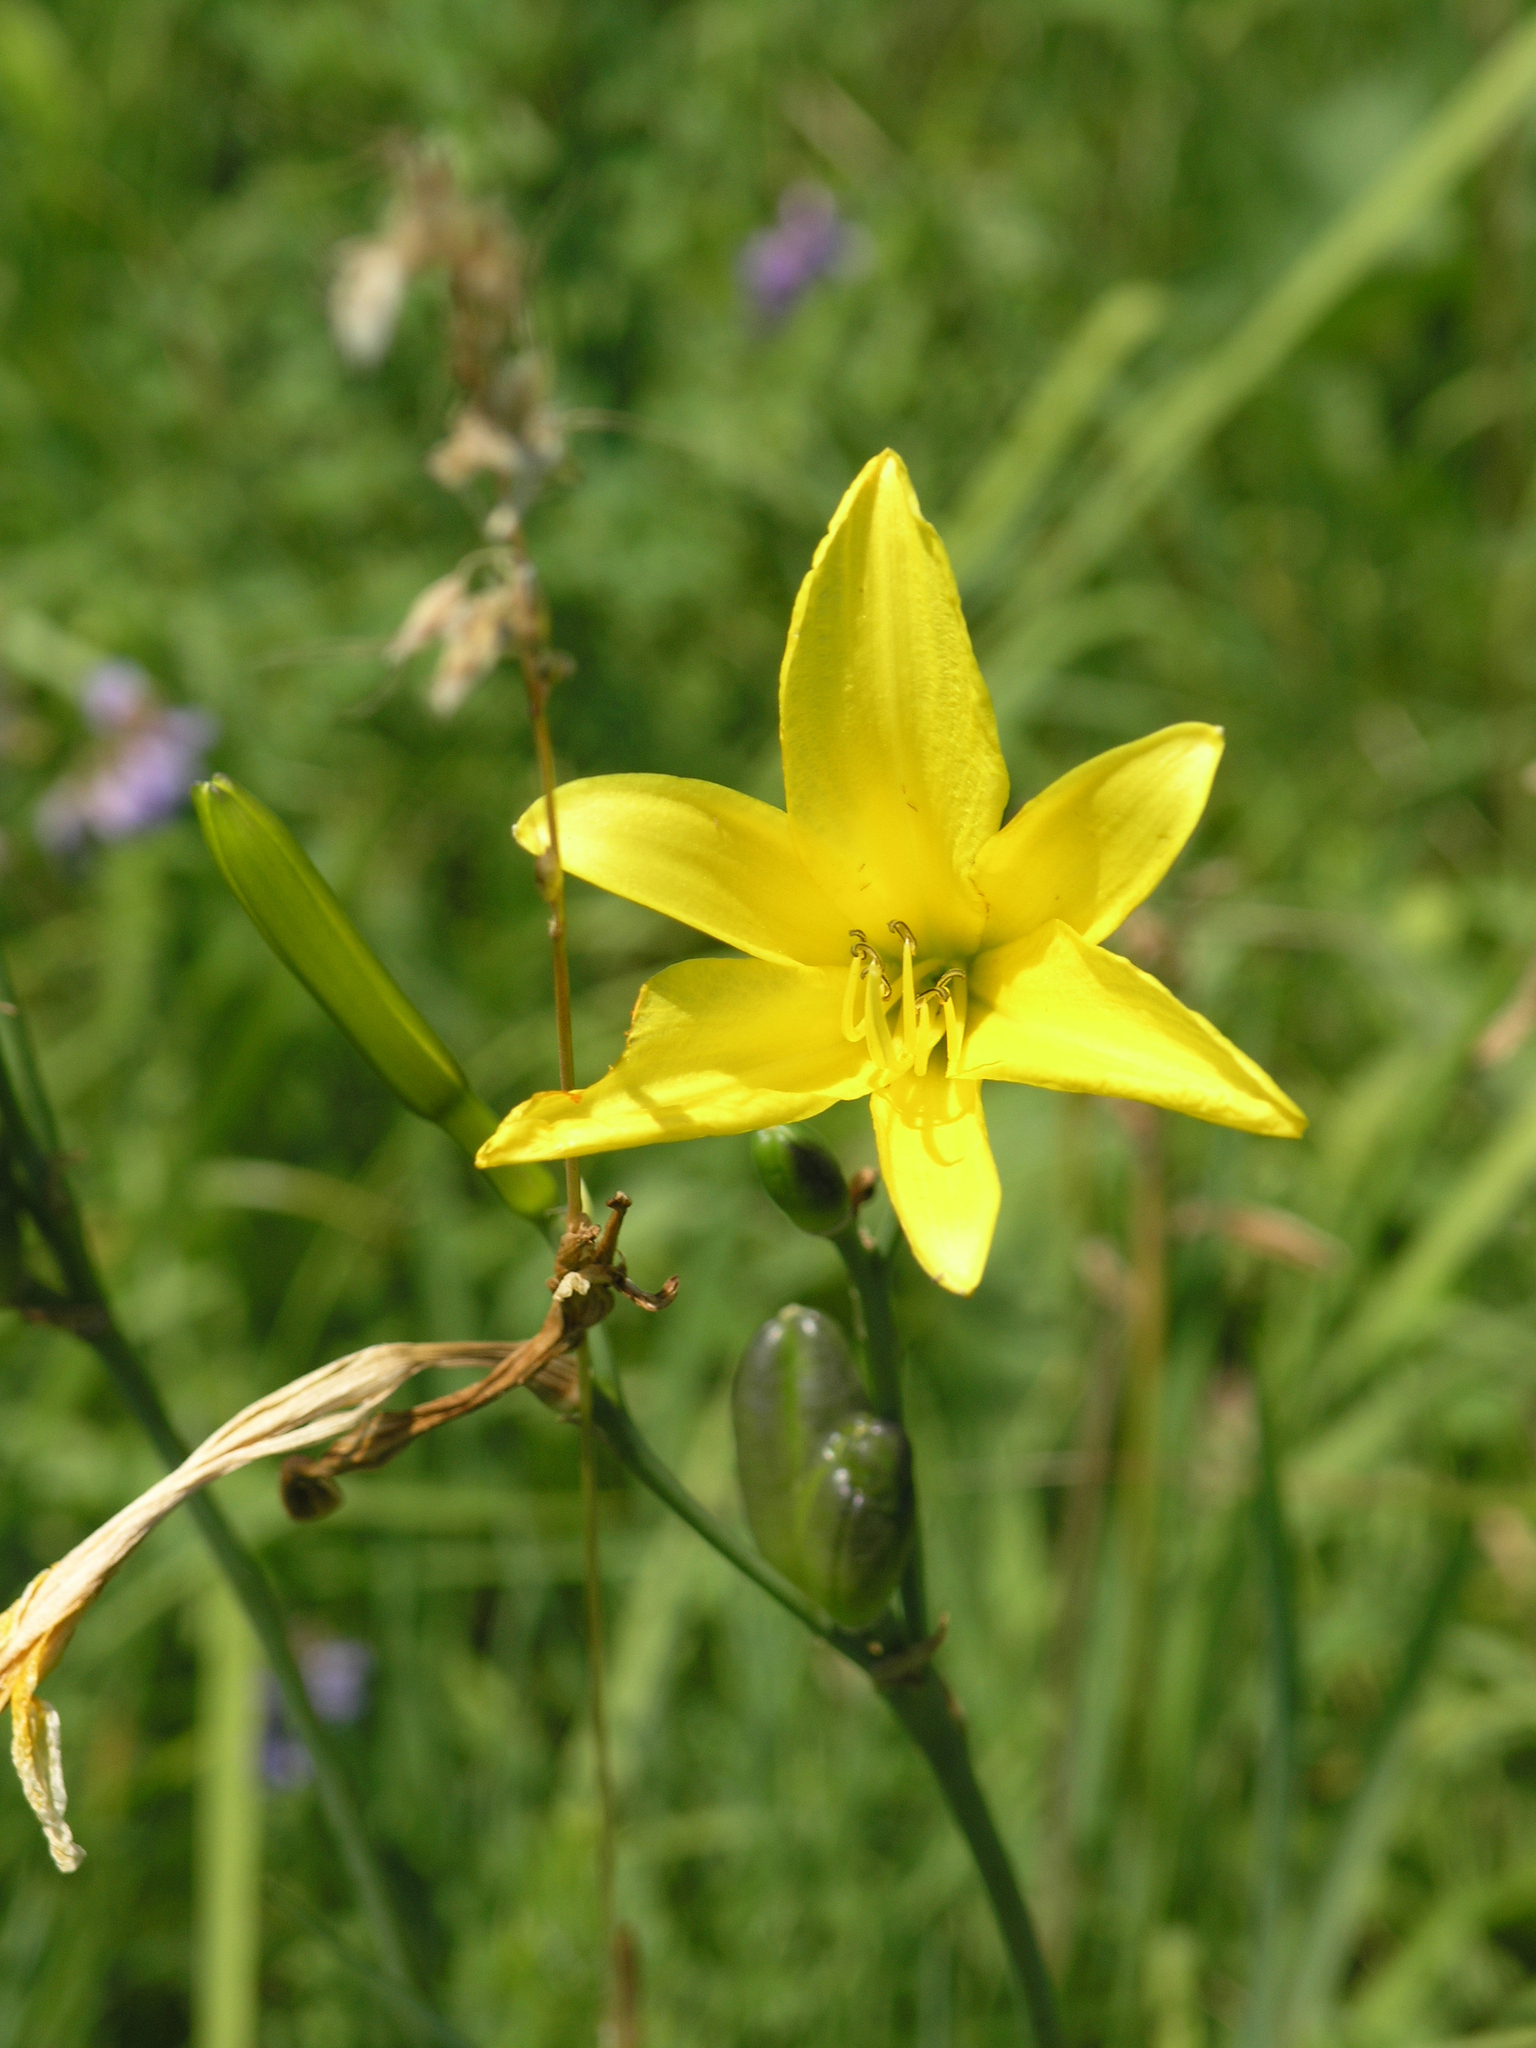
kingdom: Plantae
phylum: Tracheophyta
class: Liliopsida
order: Asparagales
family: Asphodelaceae
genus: Hemerocallis
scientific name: Hemerocallis minor
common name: Small daylily
